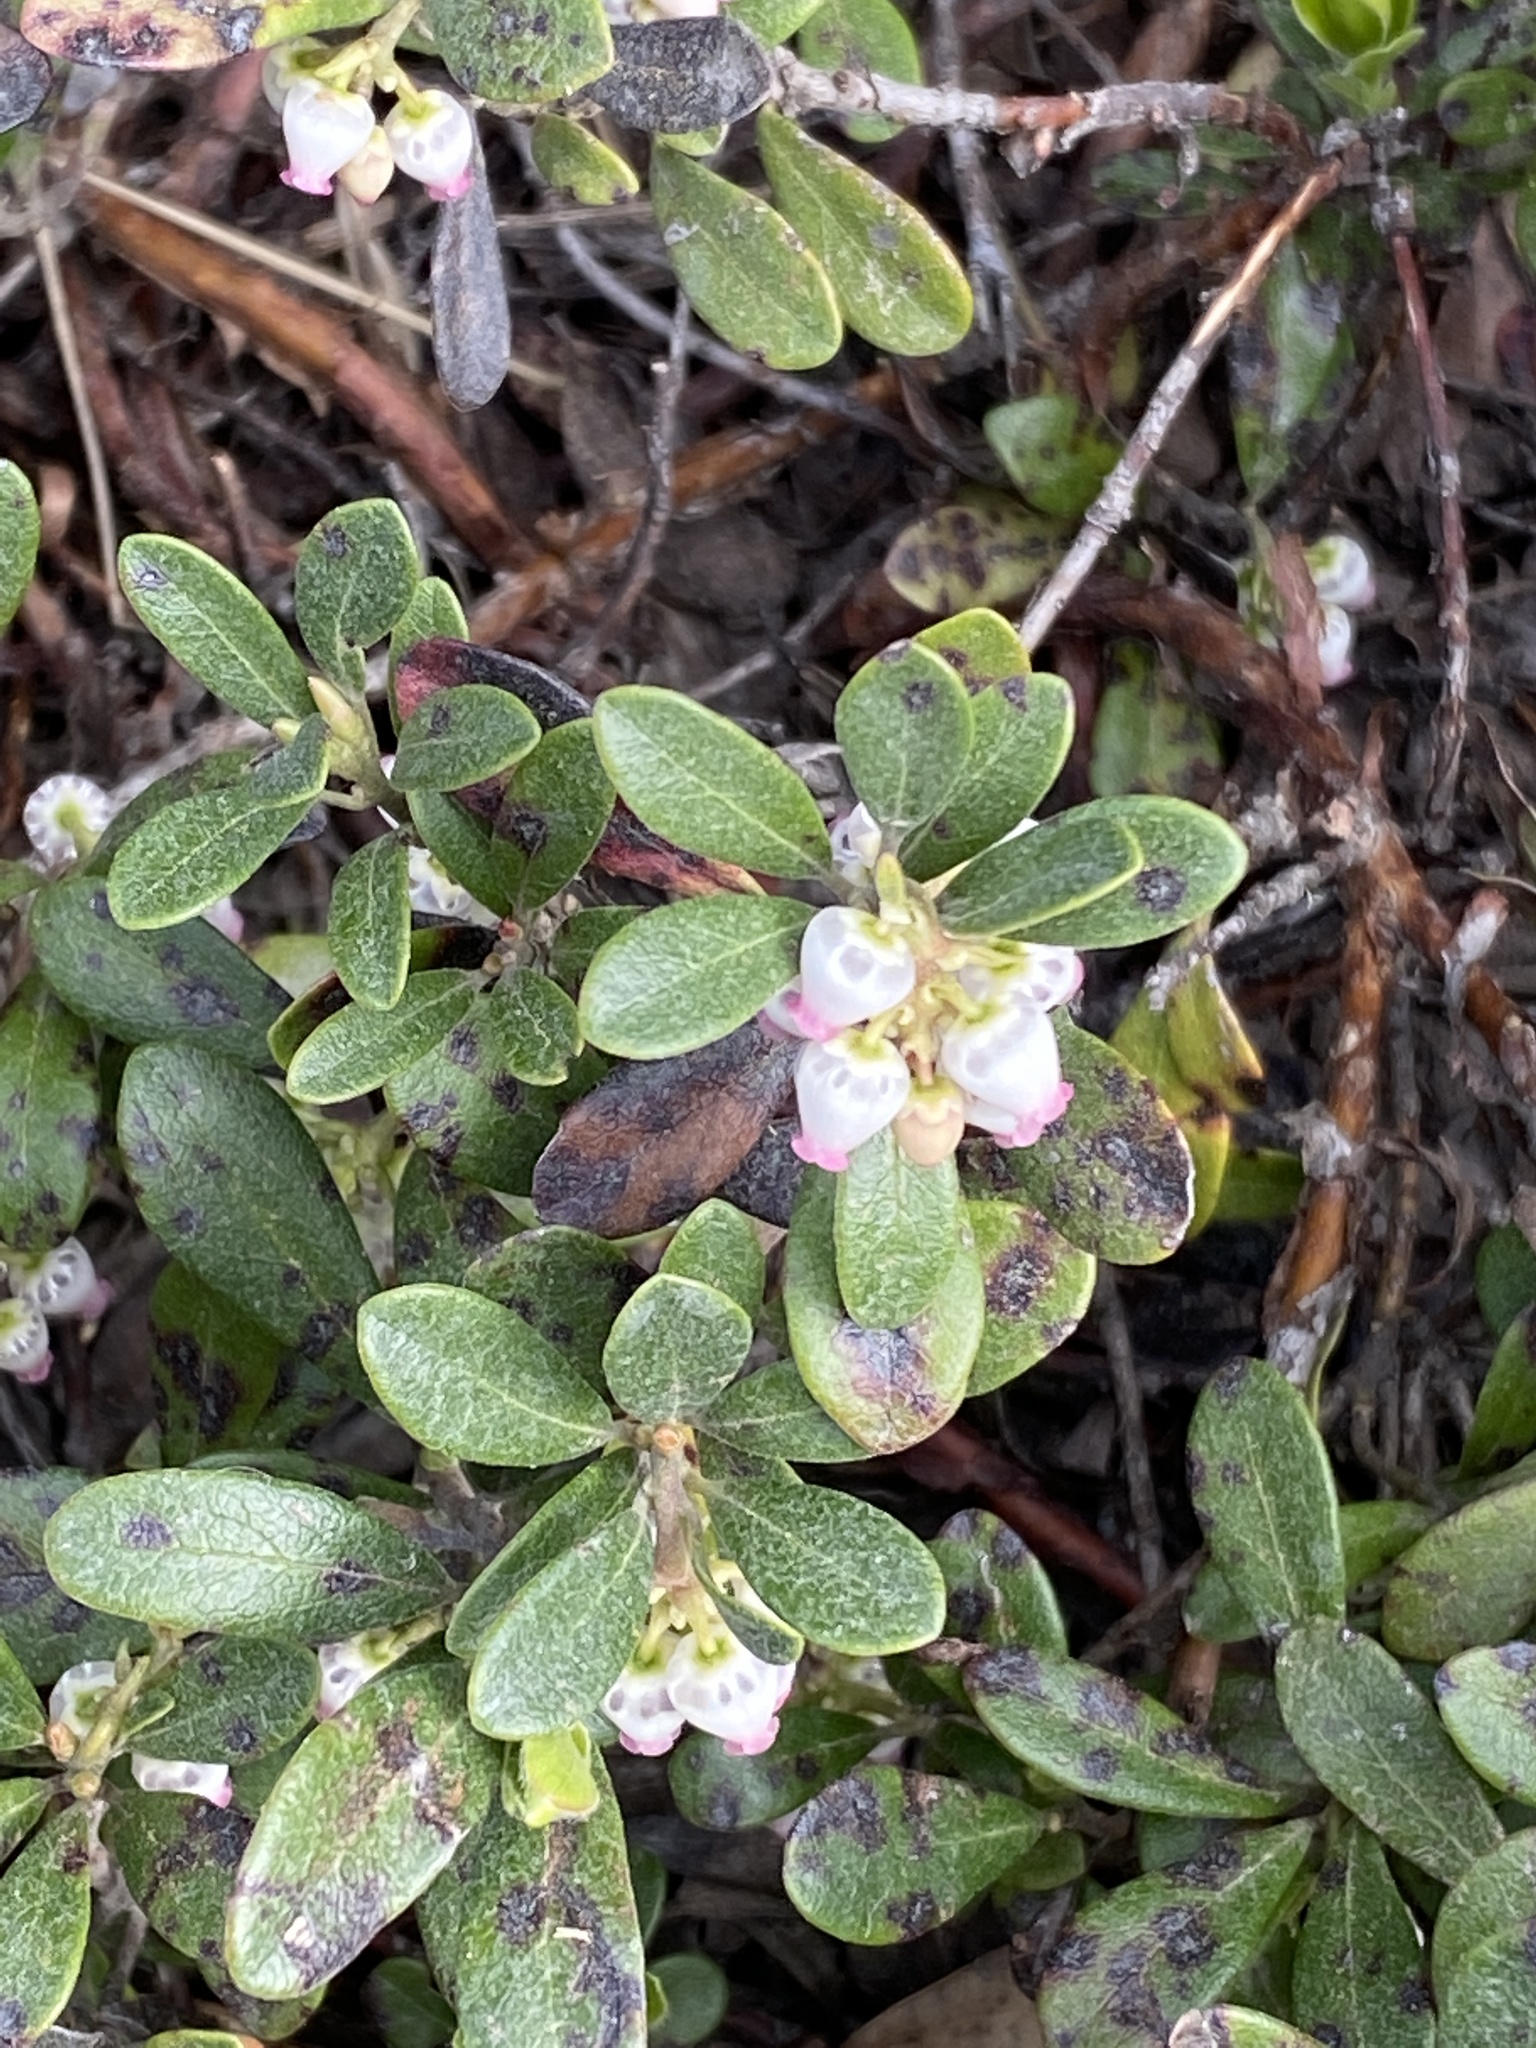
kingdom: Plantae
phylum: Tracheophyta
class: Magnoliopsida
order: Ericales
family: Ericaceae
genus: Arctostaphylos
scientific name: Arctostaphylos uva-ursi
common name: Bearberry
